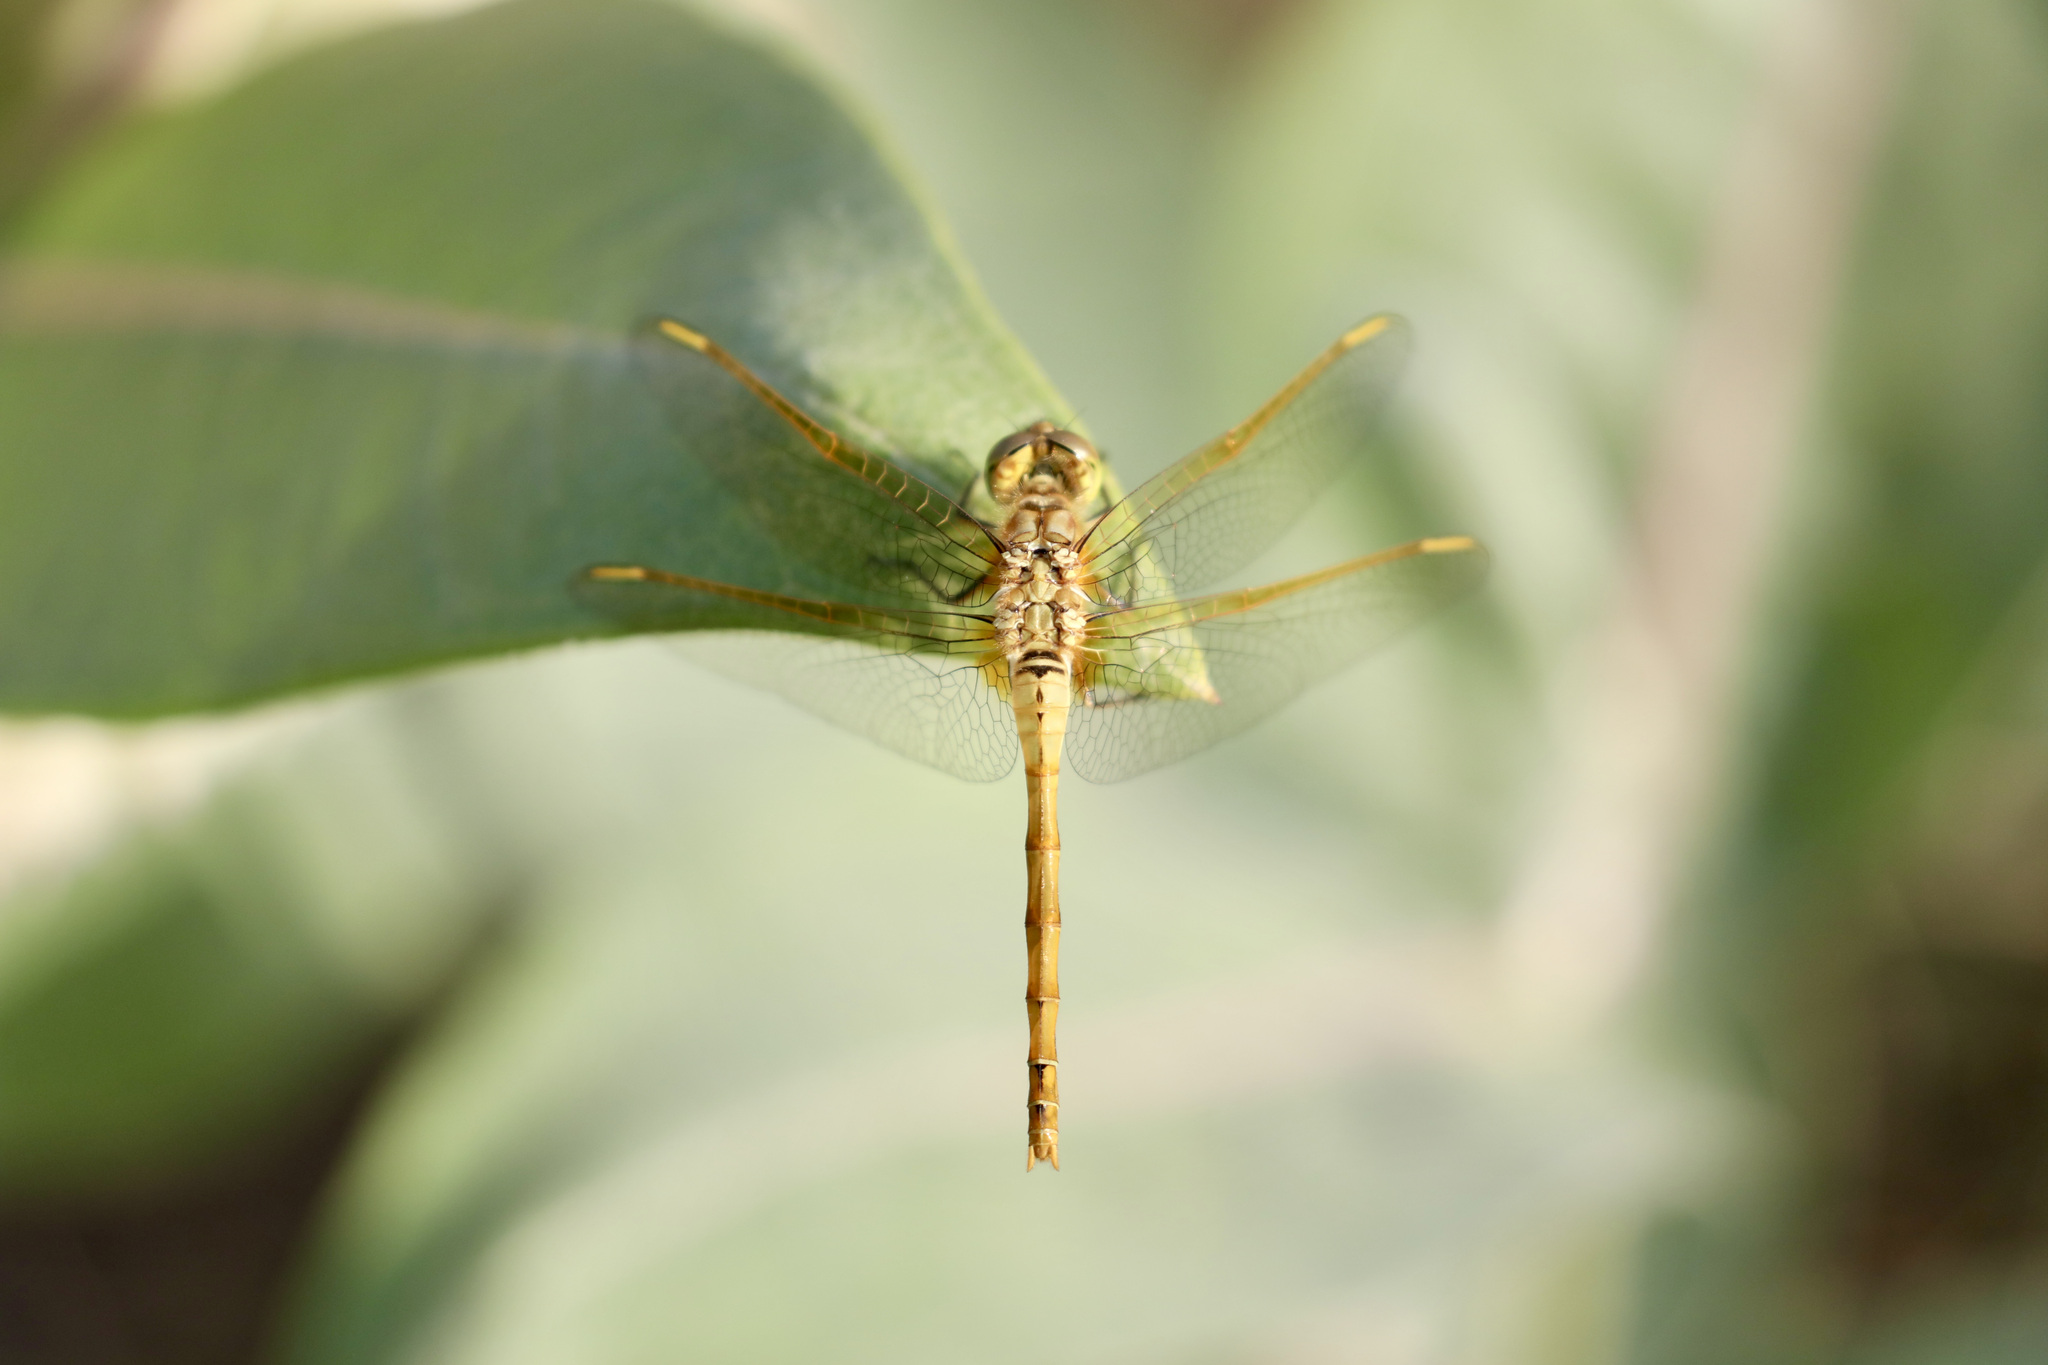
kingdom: Animalia
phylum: Arthropoda
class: Insecta
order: Odonata
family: Libellulidae
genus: Sympetrum
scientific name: Sympetrum costiferum
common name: Saffron-winged meadowhawk
